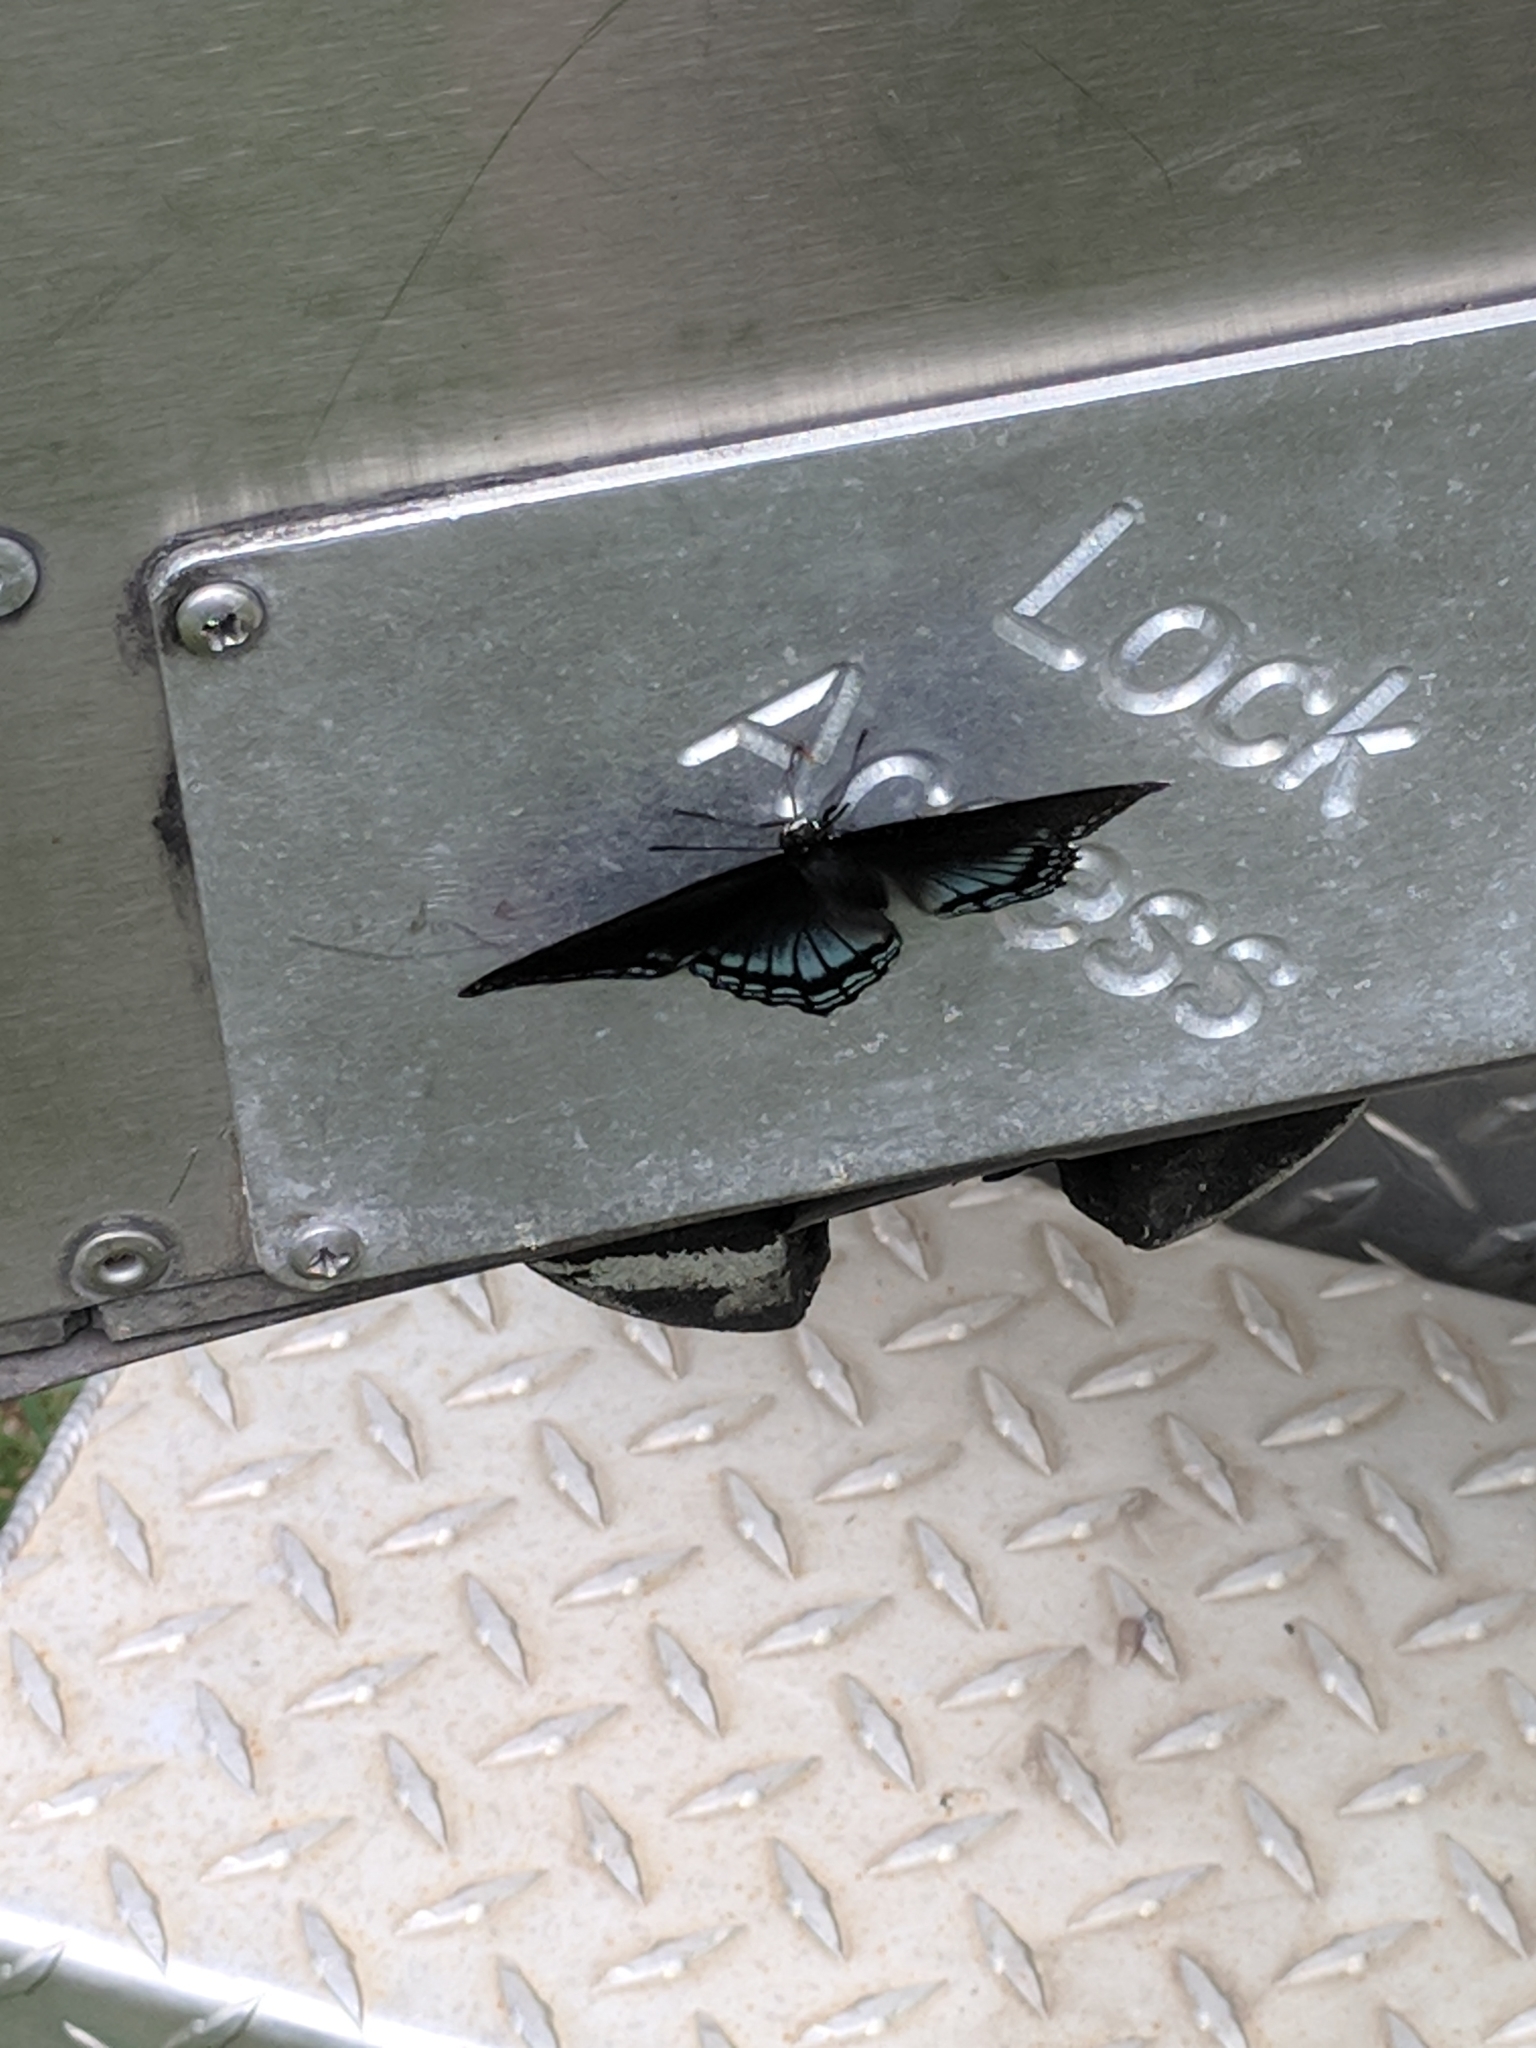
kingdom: Animalia
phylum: Arthropoda
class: Insecta
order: Lepidoptera
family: Nymphalidae
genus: Limenitis
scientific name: Limenitis astyanax
